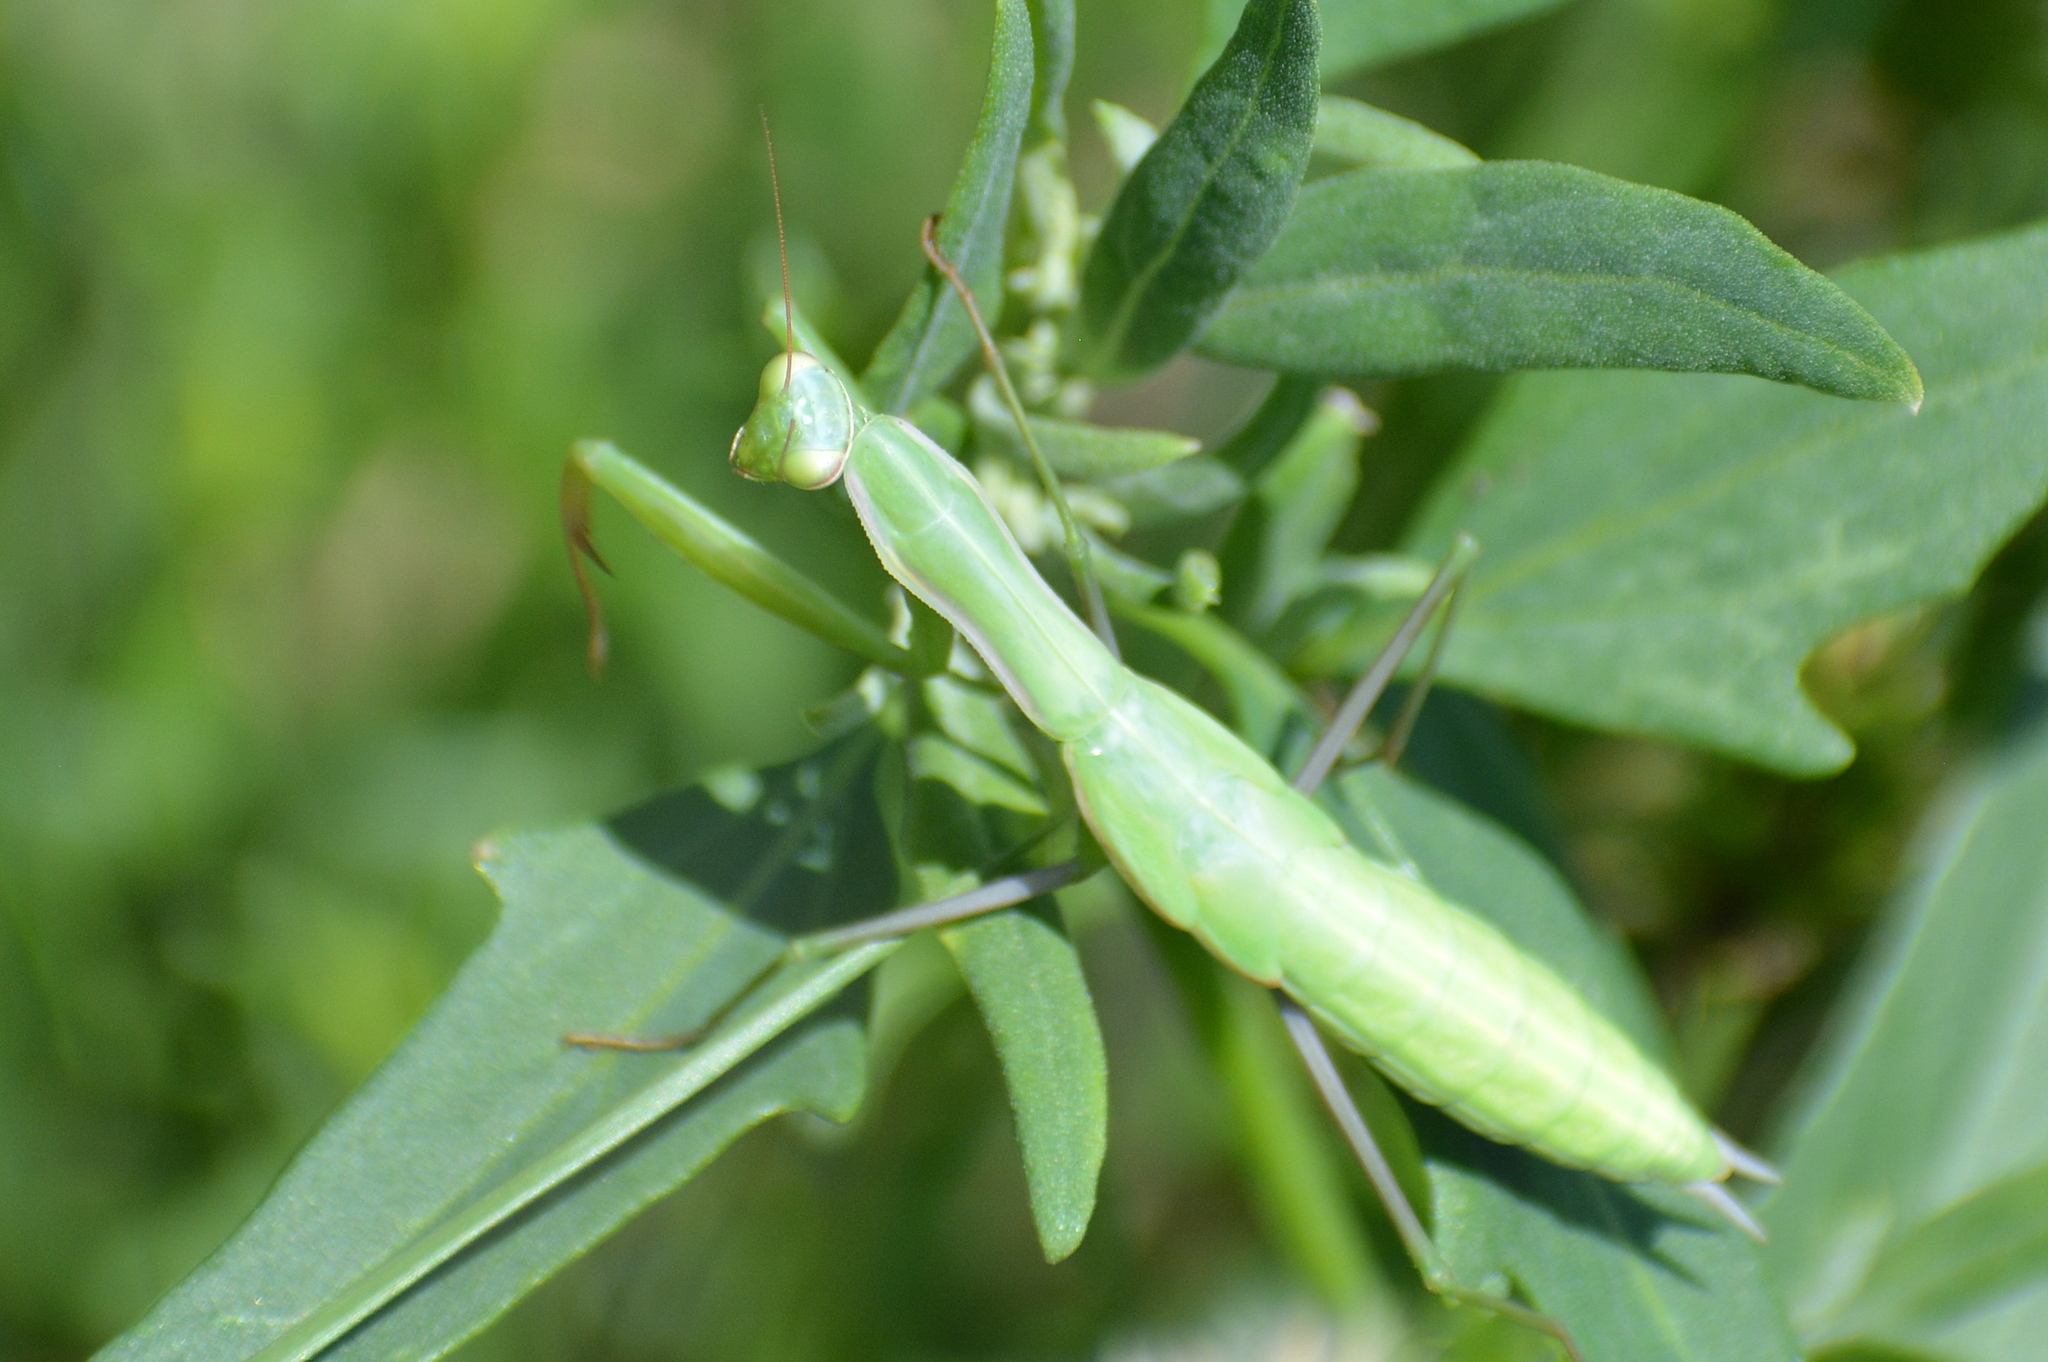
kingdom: Animalia
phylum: Arthropoda
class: Insecta
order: Mantodea
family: Mantidae
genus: Mantis
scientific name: Mantis religiosa
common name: Praying mantis
